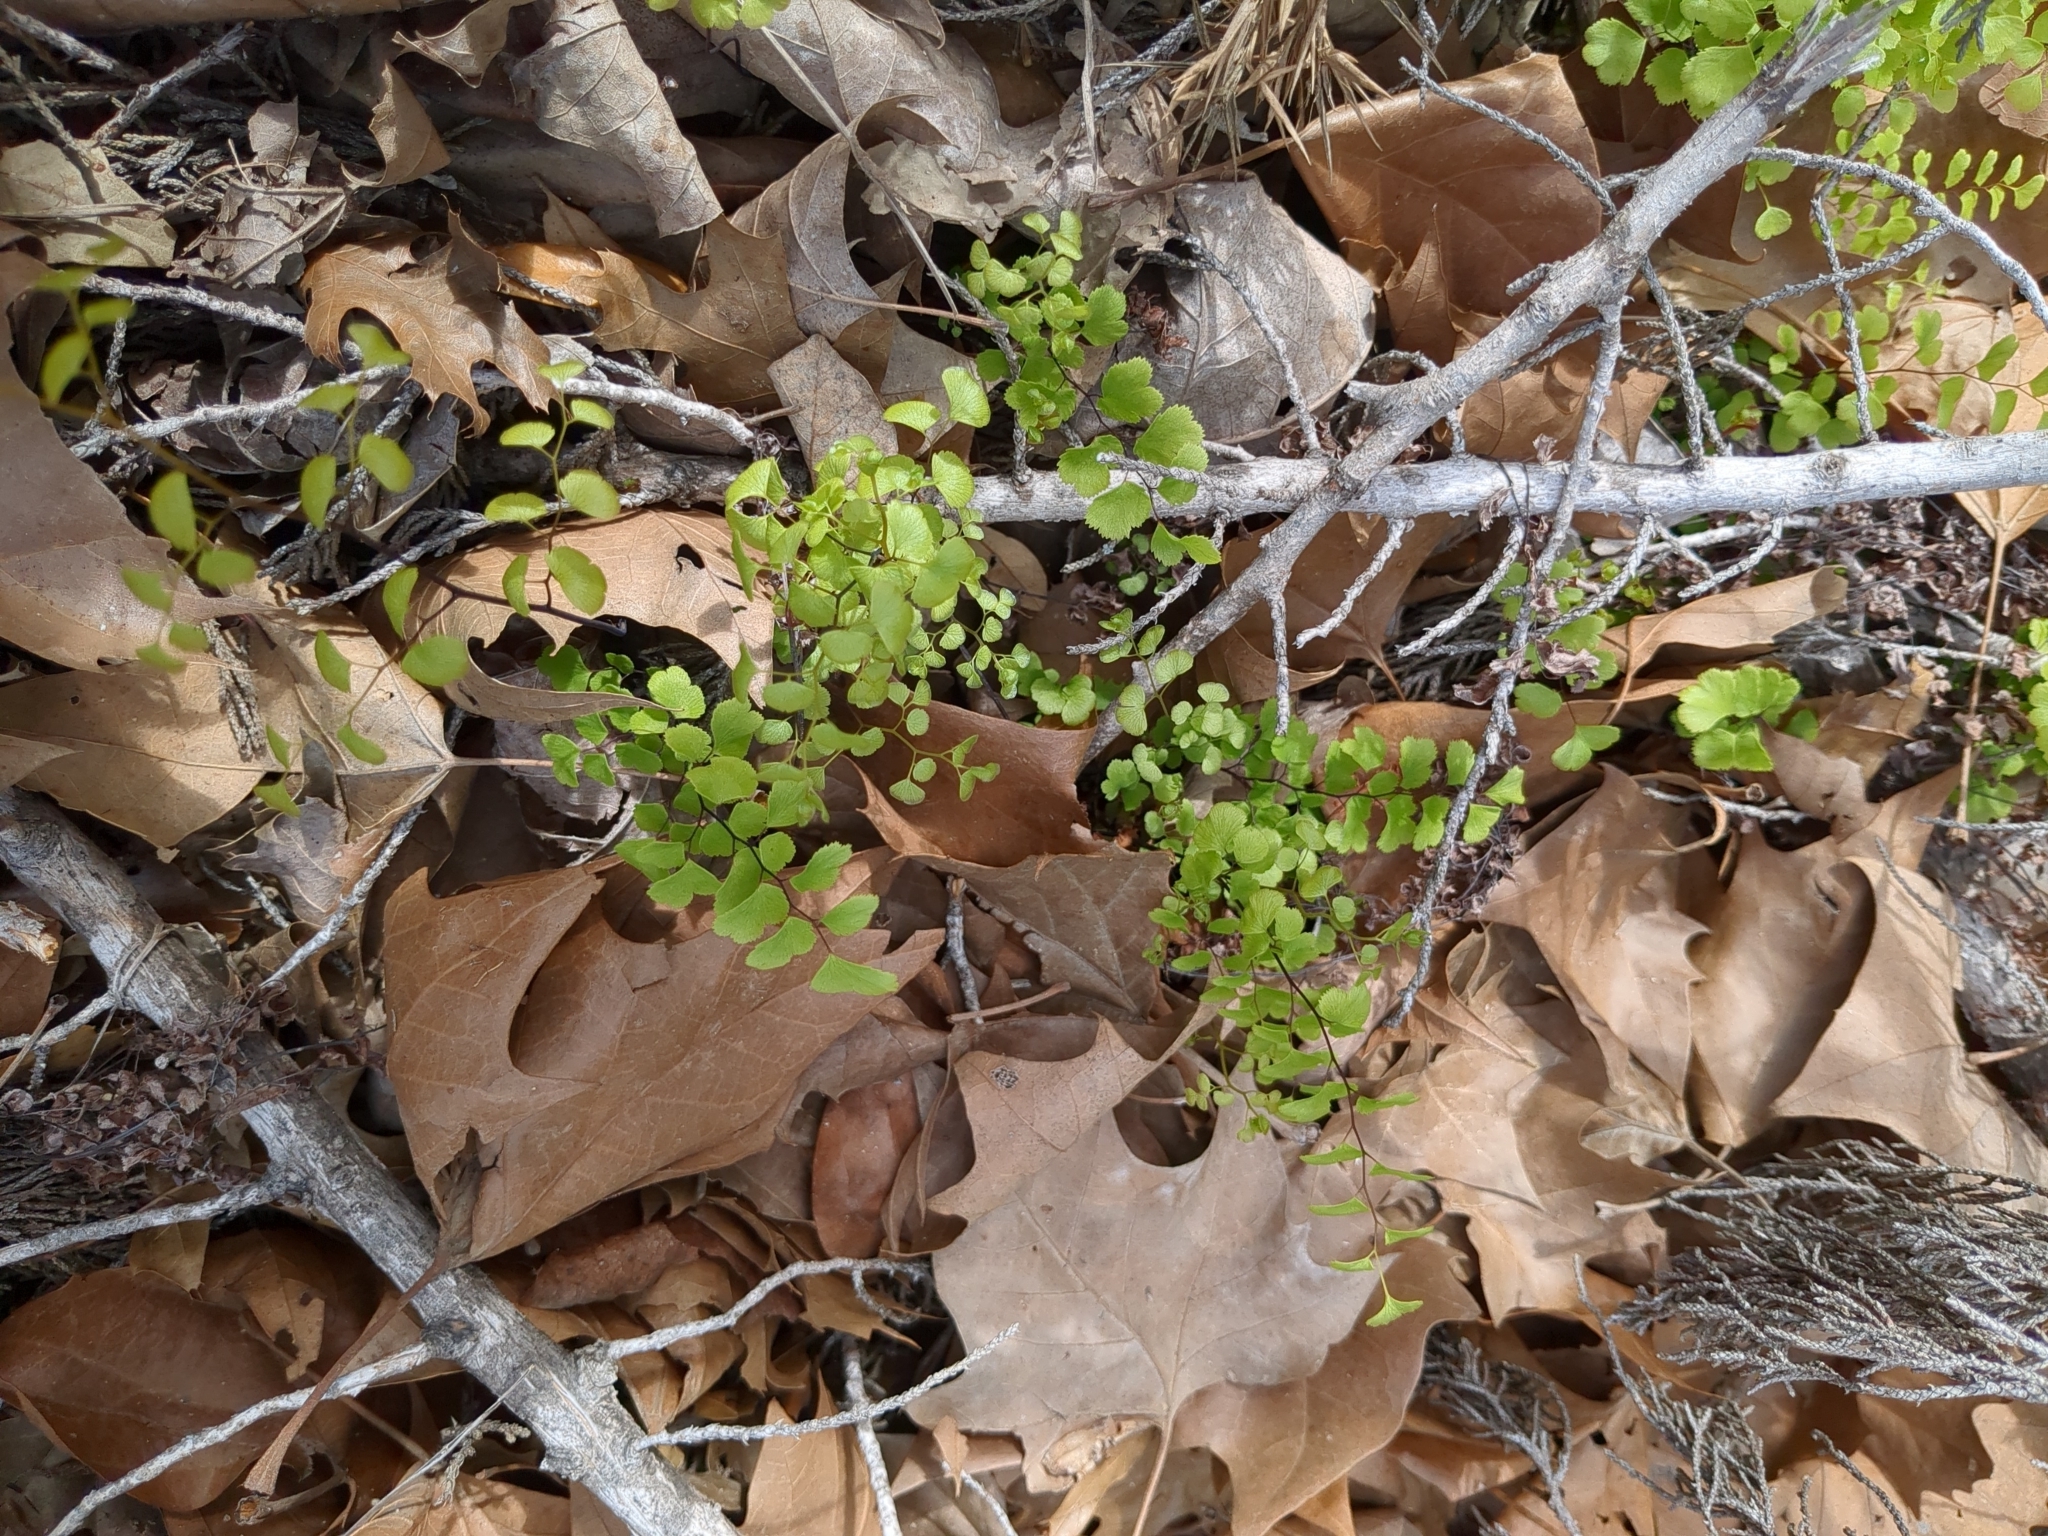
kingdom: Plantae
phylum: Tracheophyta
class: Polypodiopsida
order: Polypodiales
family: Pteridaceae
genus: Adiantum
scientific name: Adiantum capillus-veneris
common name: Maidenhair fern
